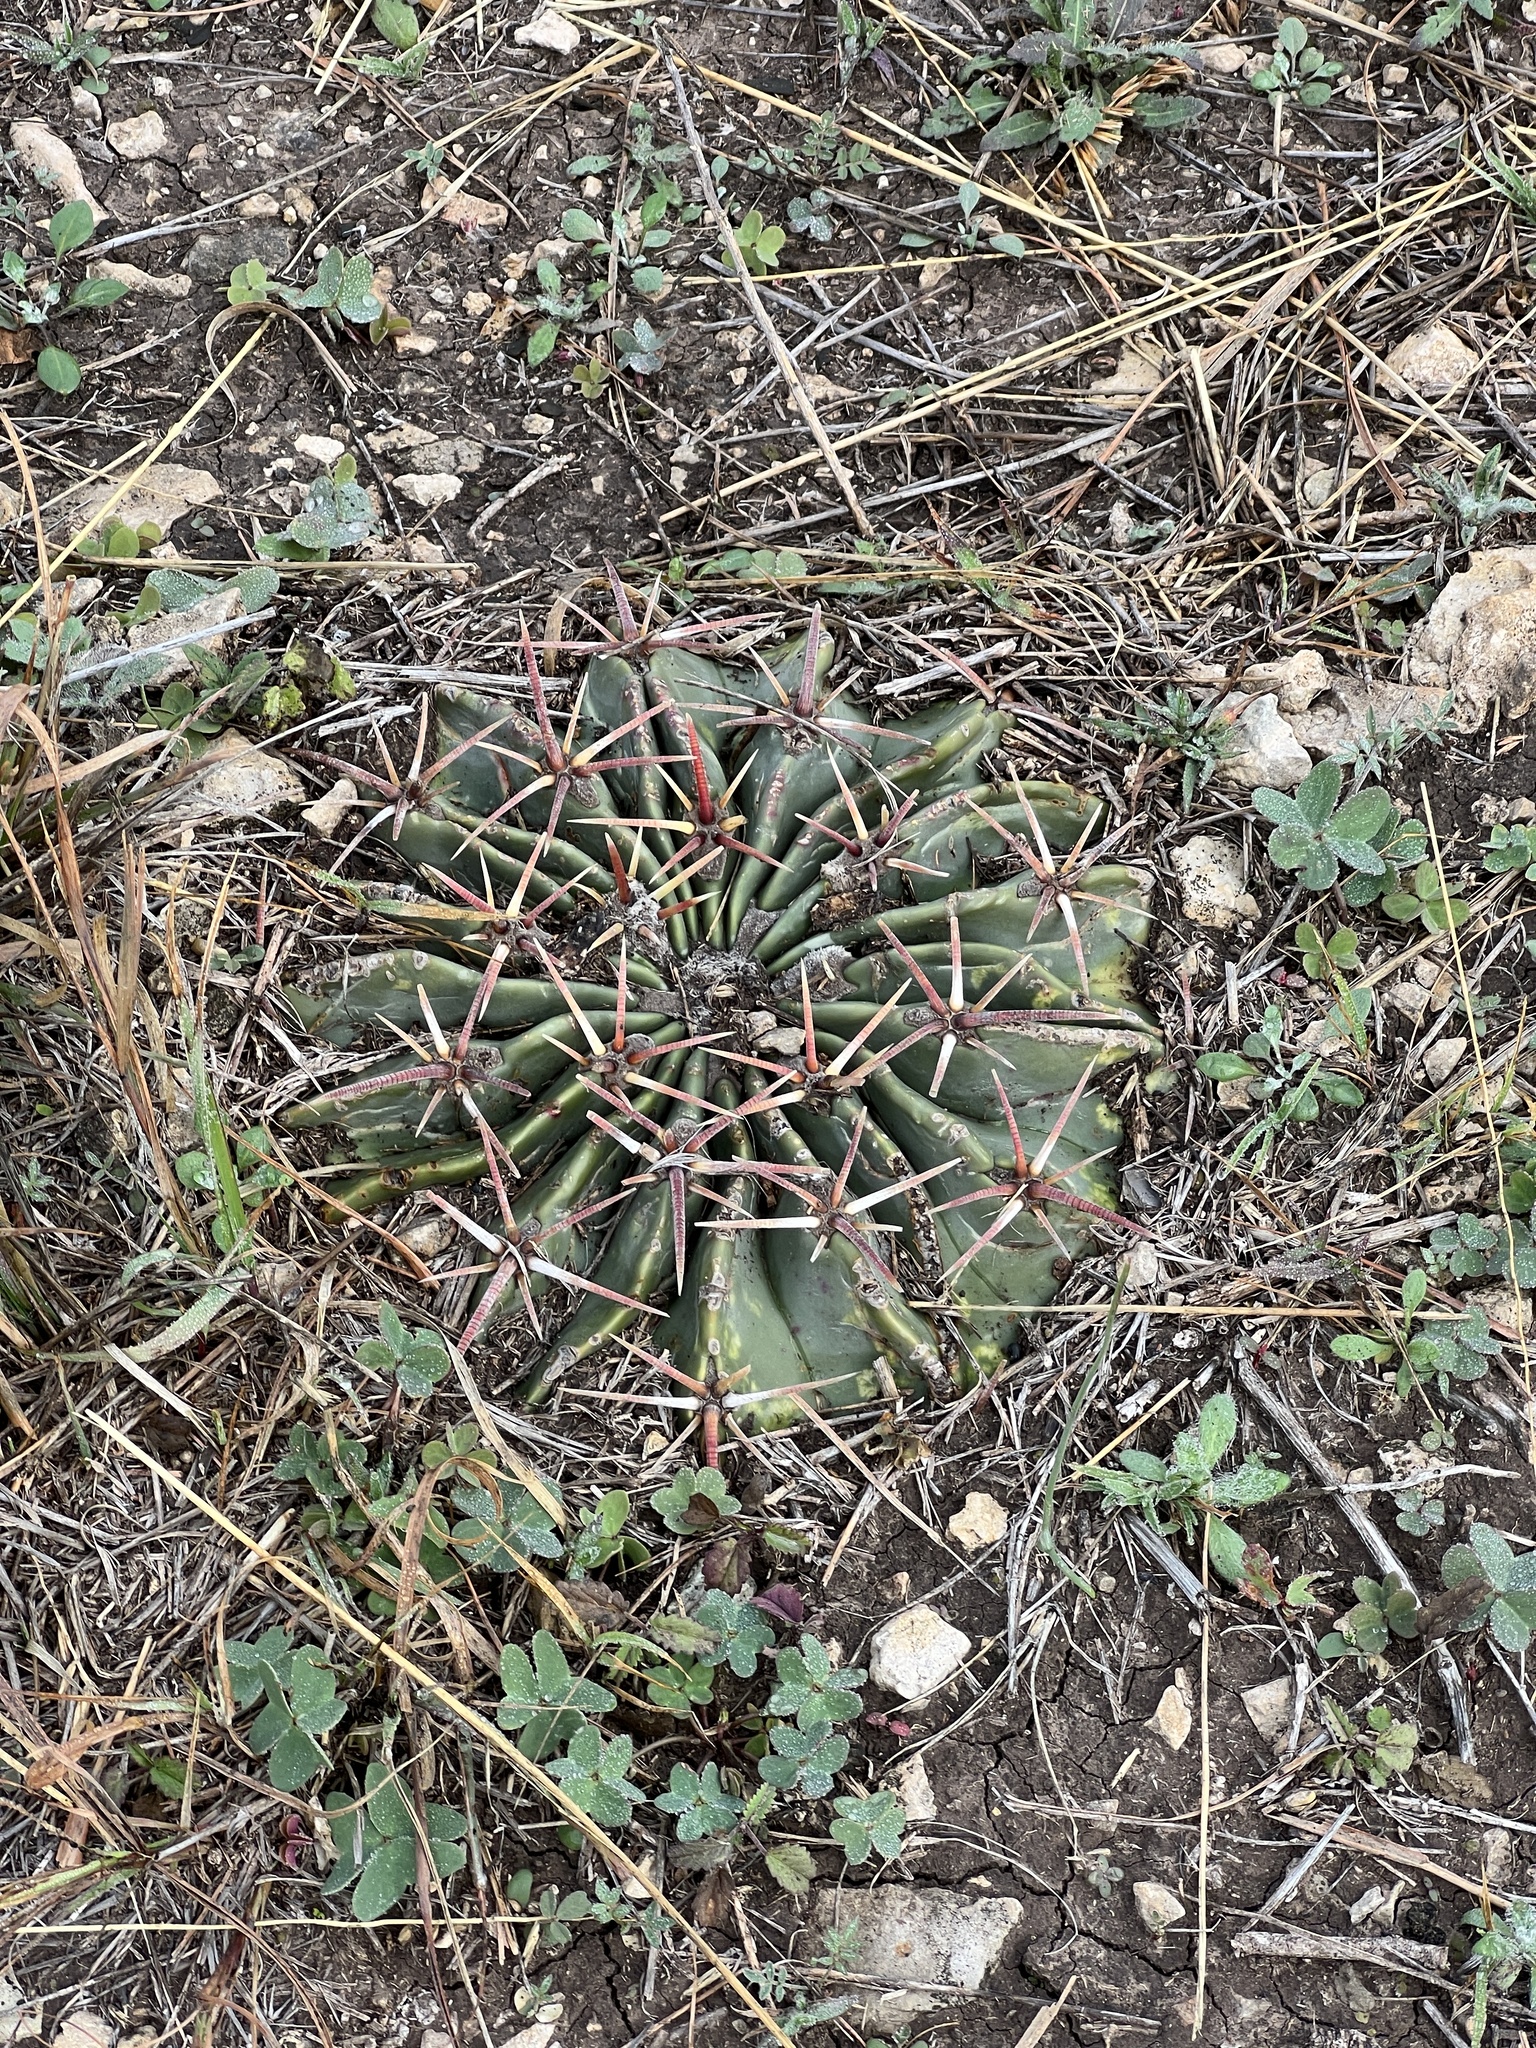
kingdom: Plantae
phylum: Tracheophyta
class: Magnoliopsida
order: Caryophyllales
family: Cactaceae
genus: Echinocactus
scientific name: Echinocactus texensis
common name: Devil's pincushion
